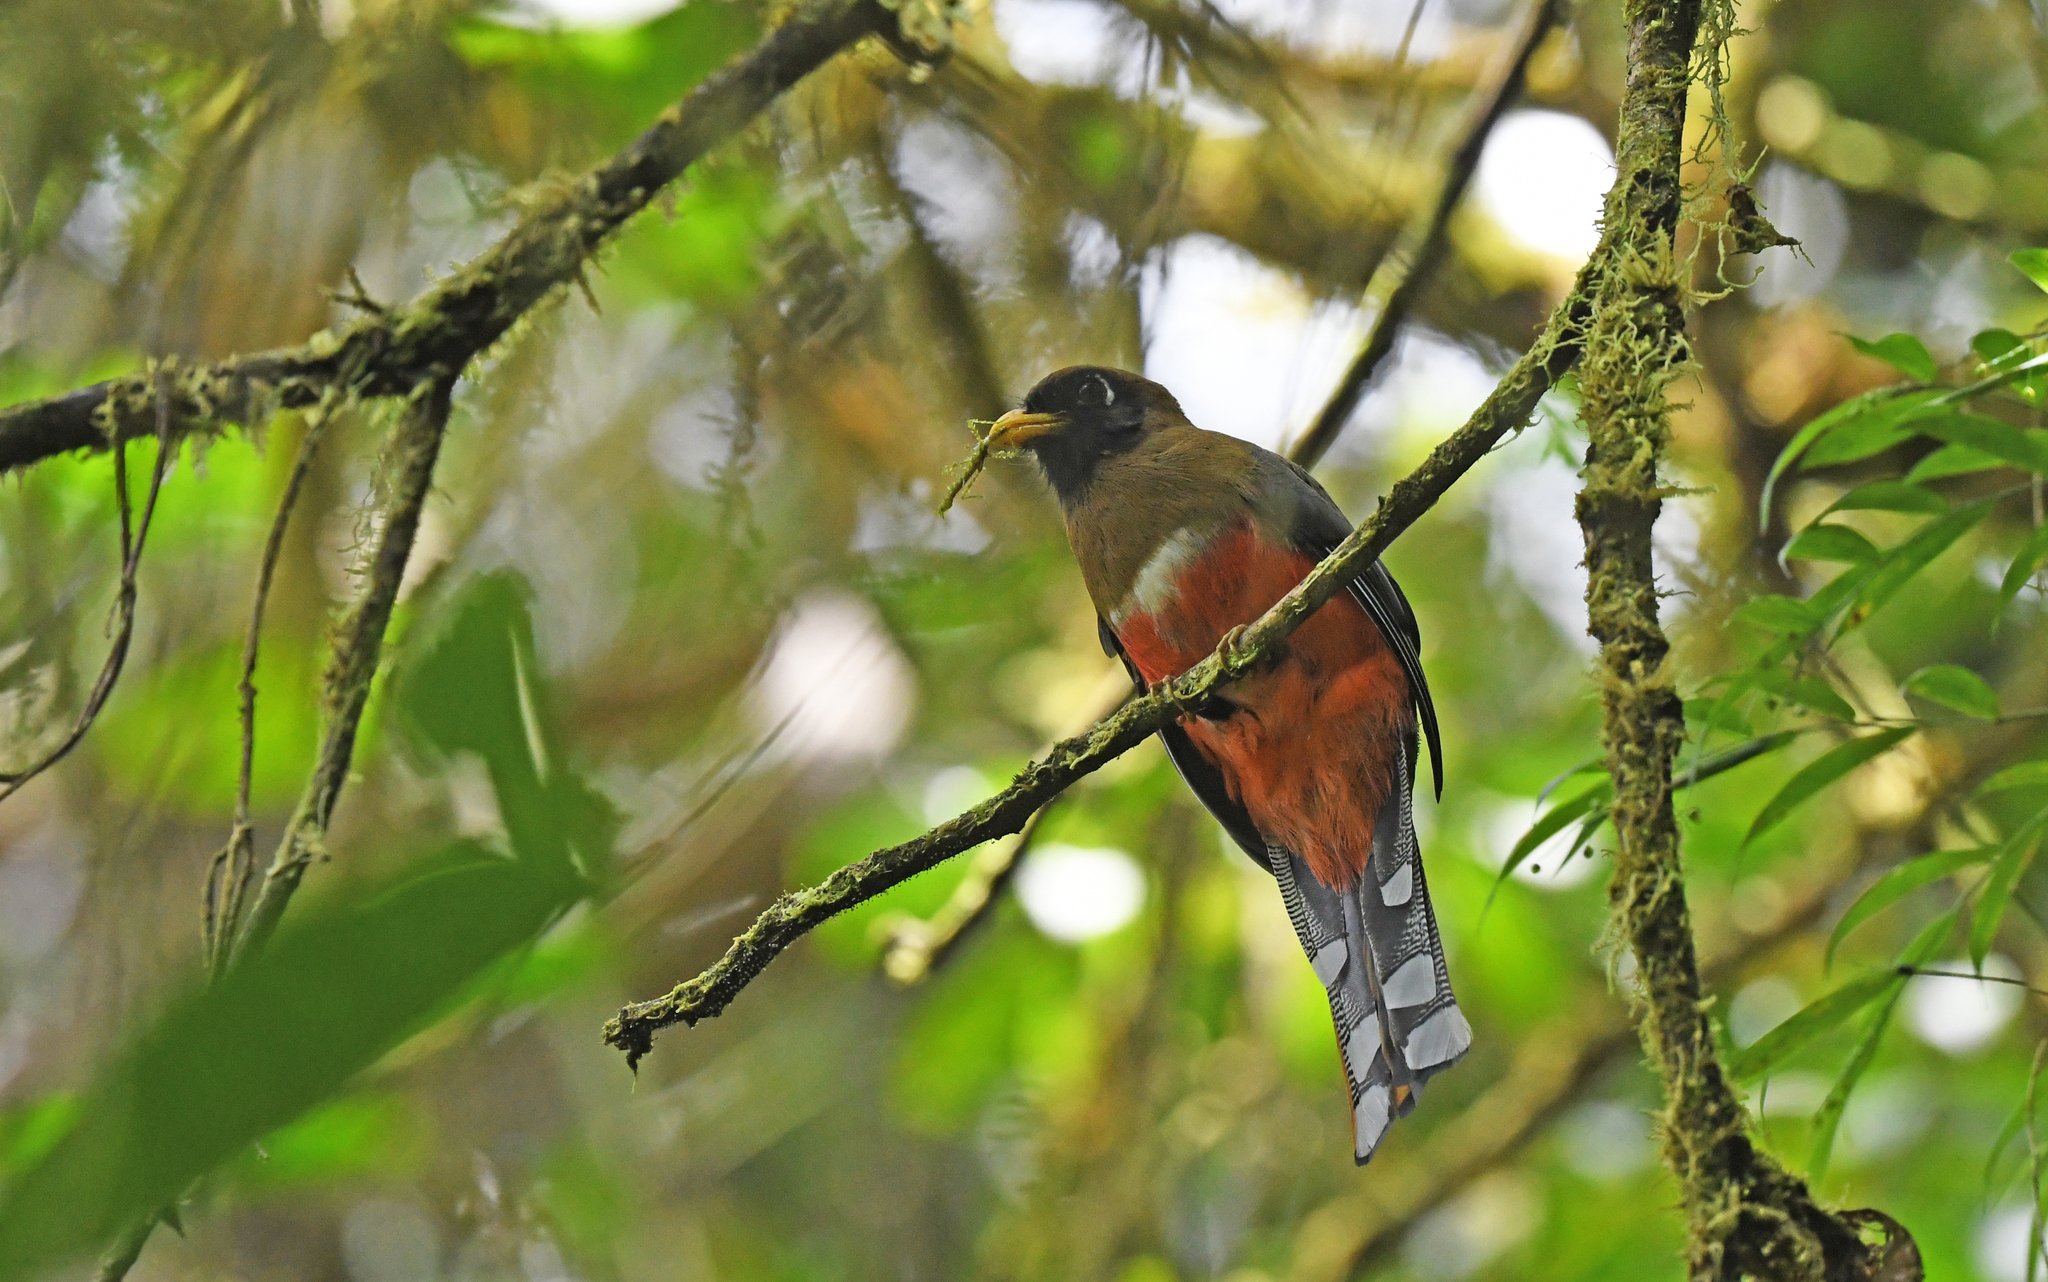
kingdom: Animalia
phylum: Chordata
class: Aves
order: Trogoniformes
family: Trogonidae
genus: Trogon
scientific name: Trogon collaris
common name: Collared trogon
